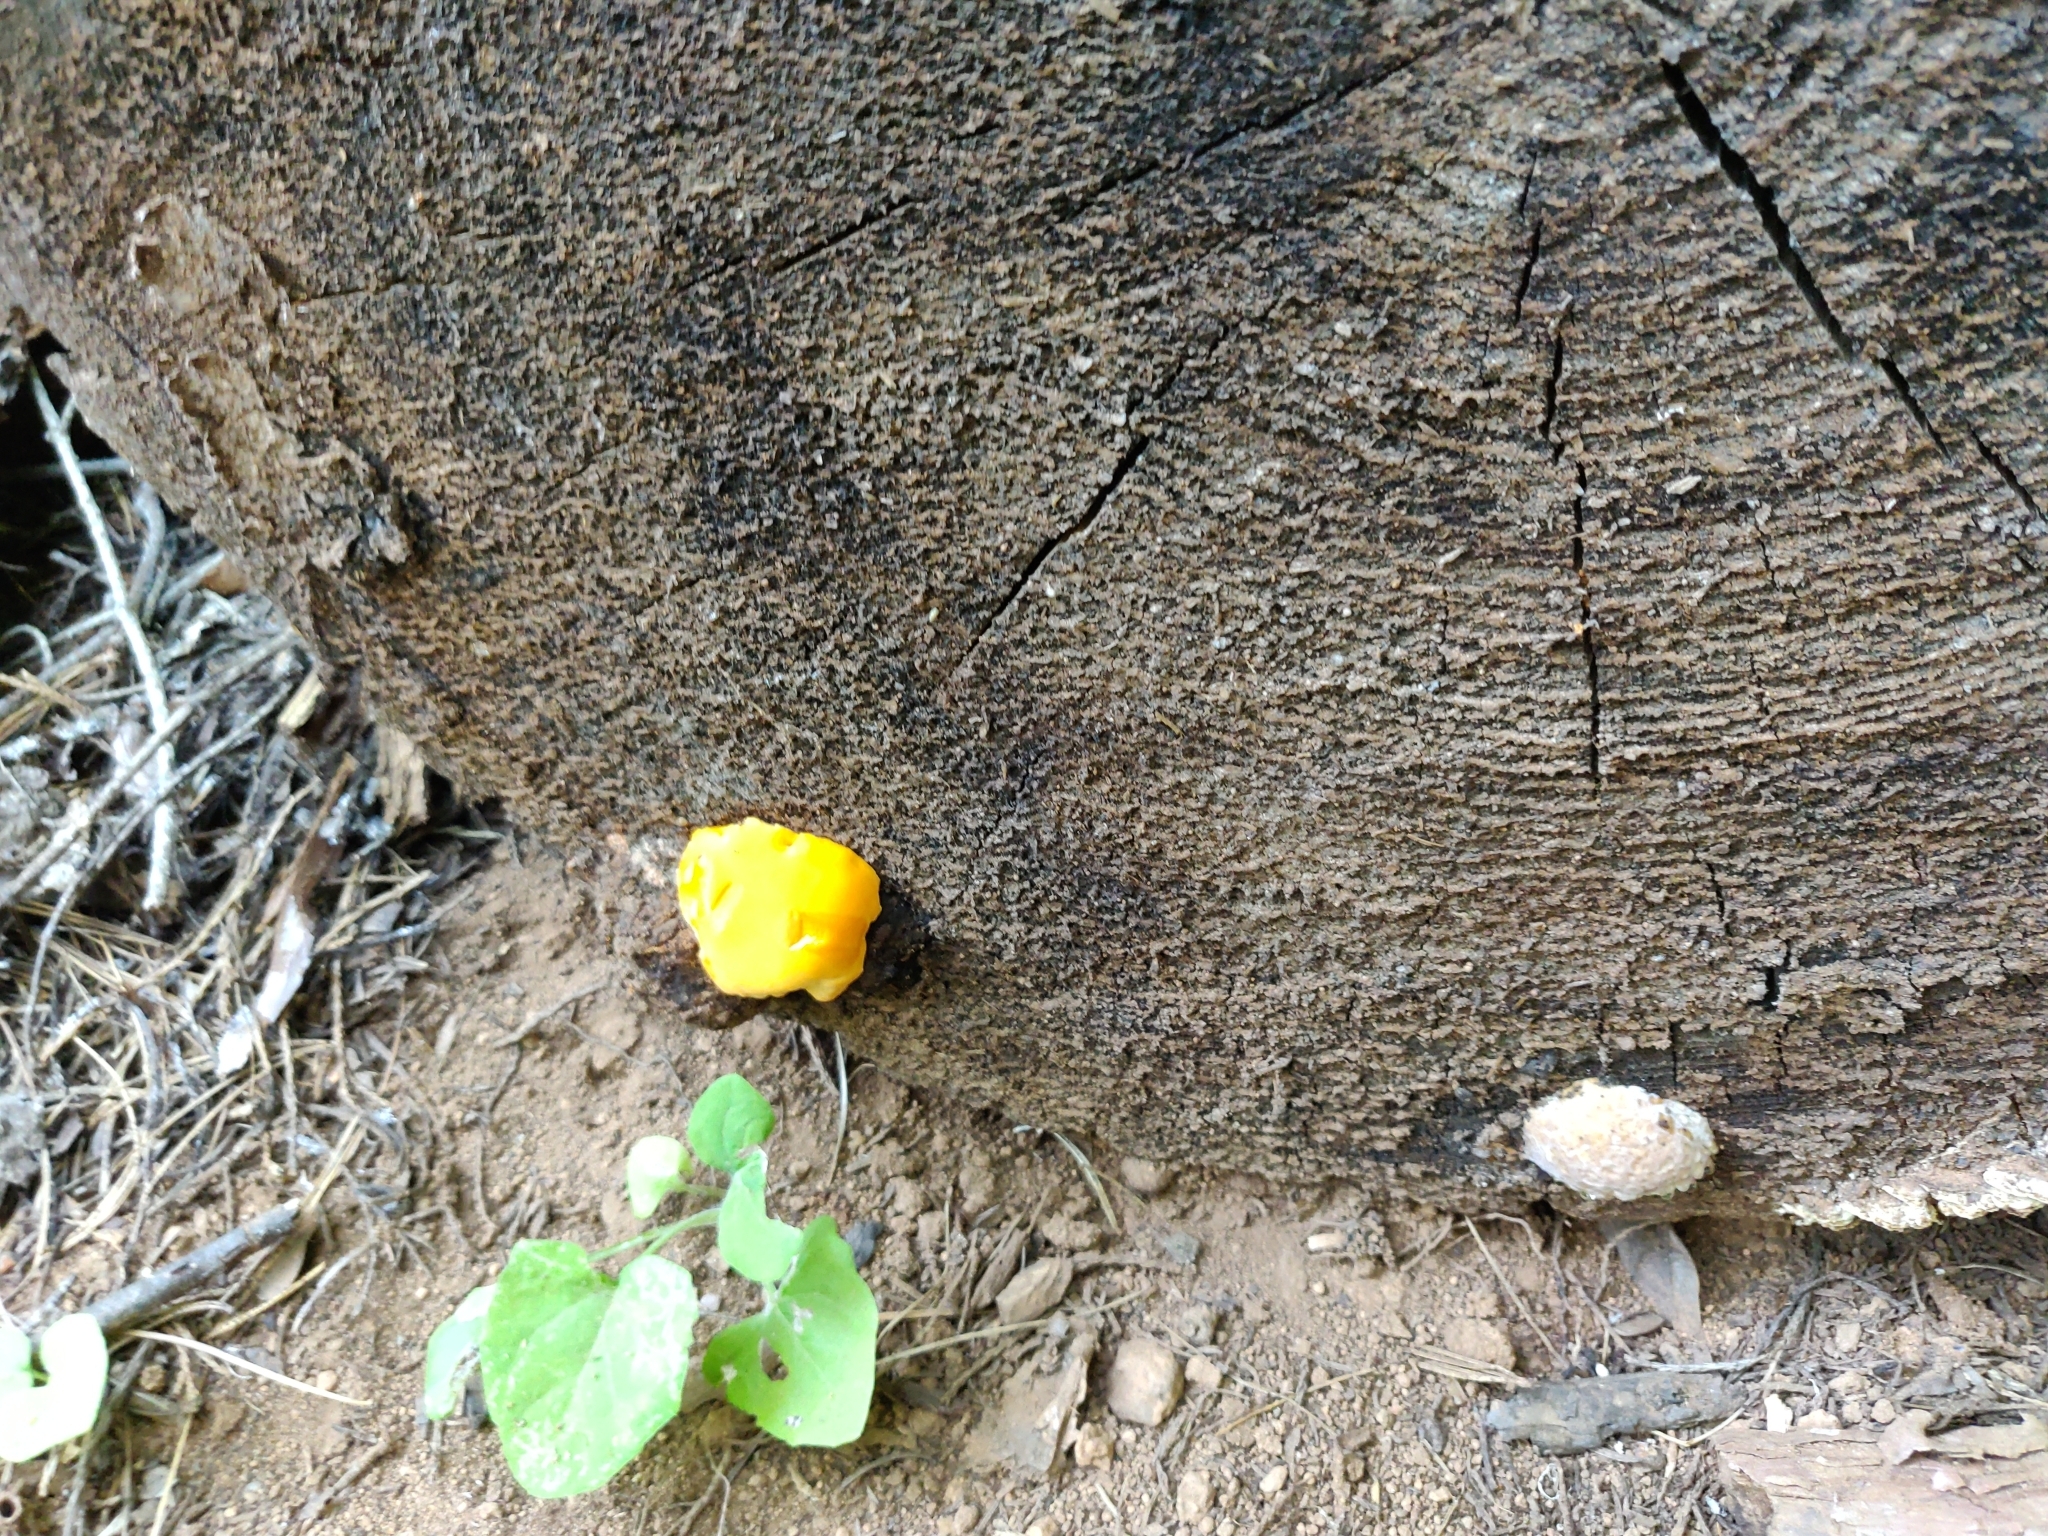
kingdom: Fungi
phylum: Basidiomycota
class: Agaricomycetes
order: Polyporales
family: Pycnoporellaceae
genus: Pycnoporellus
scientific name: Pycnoporellus fulgens
